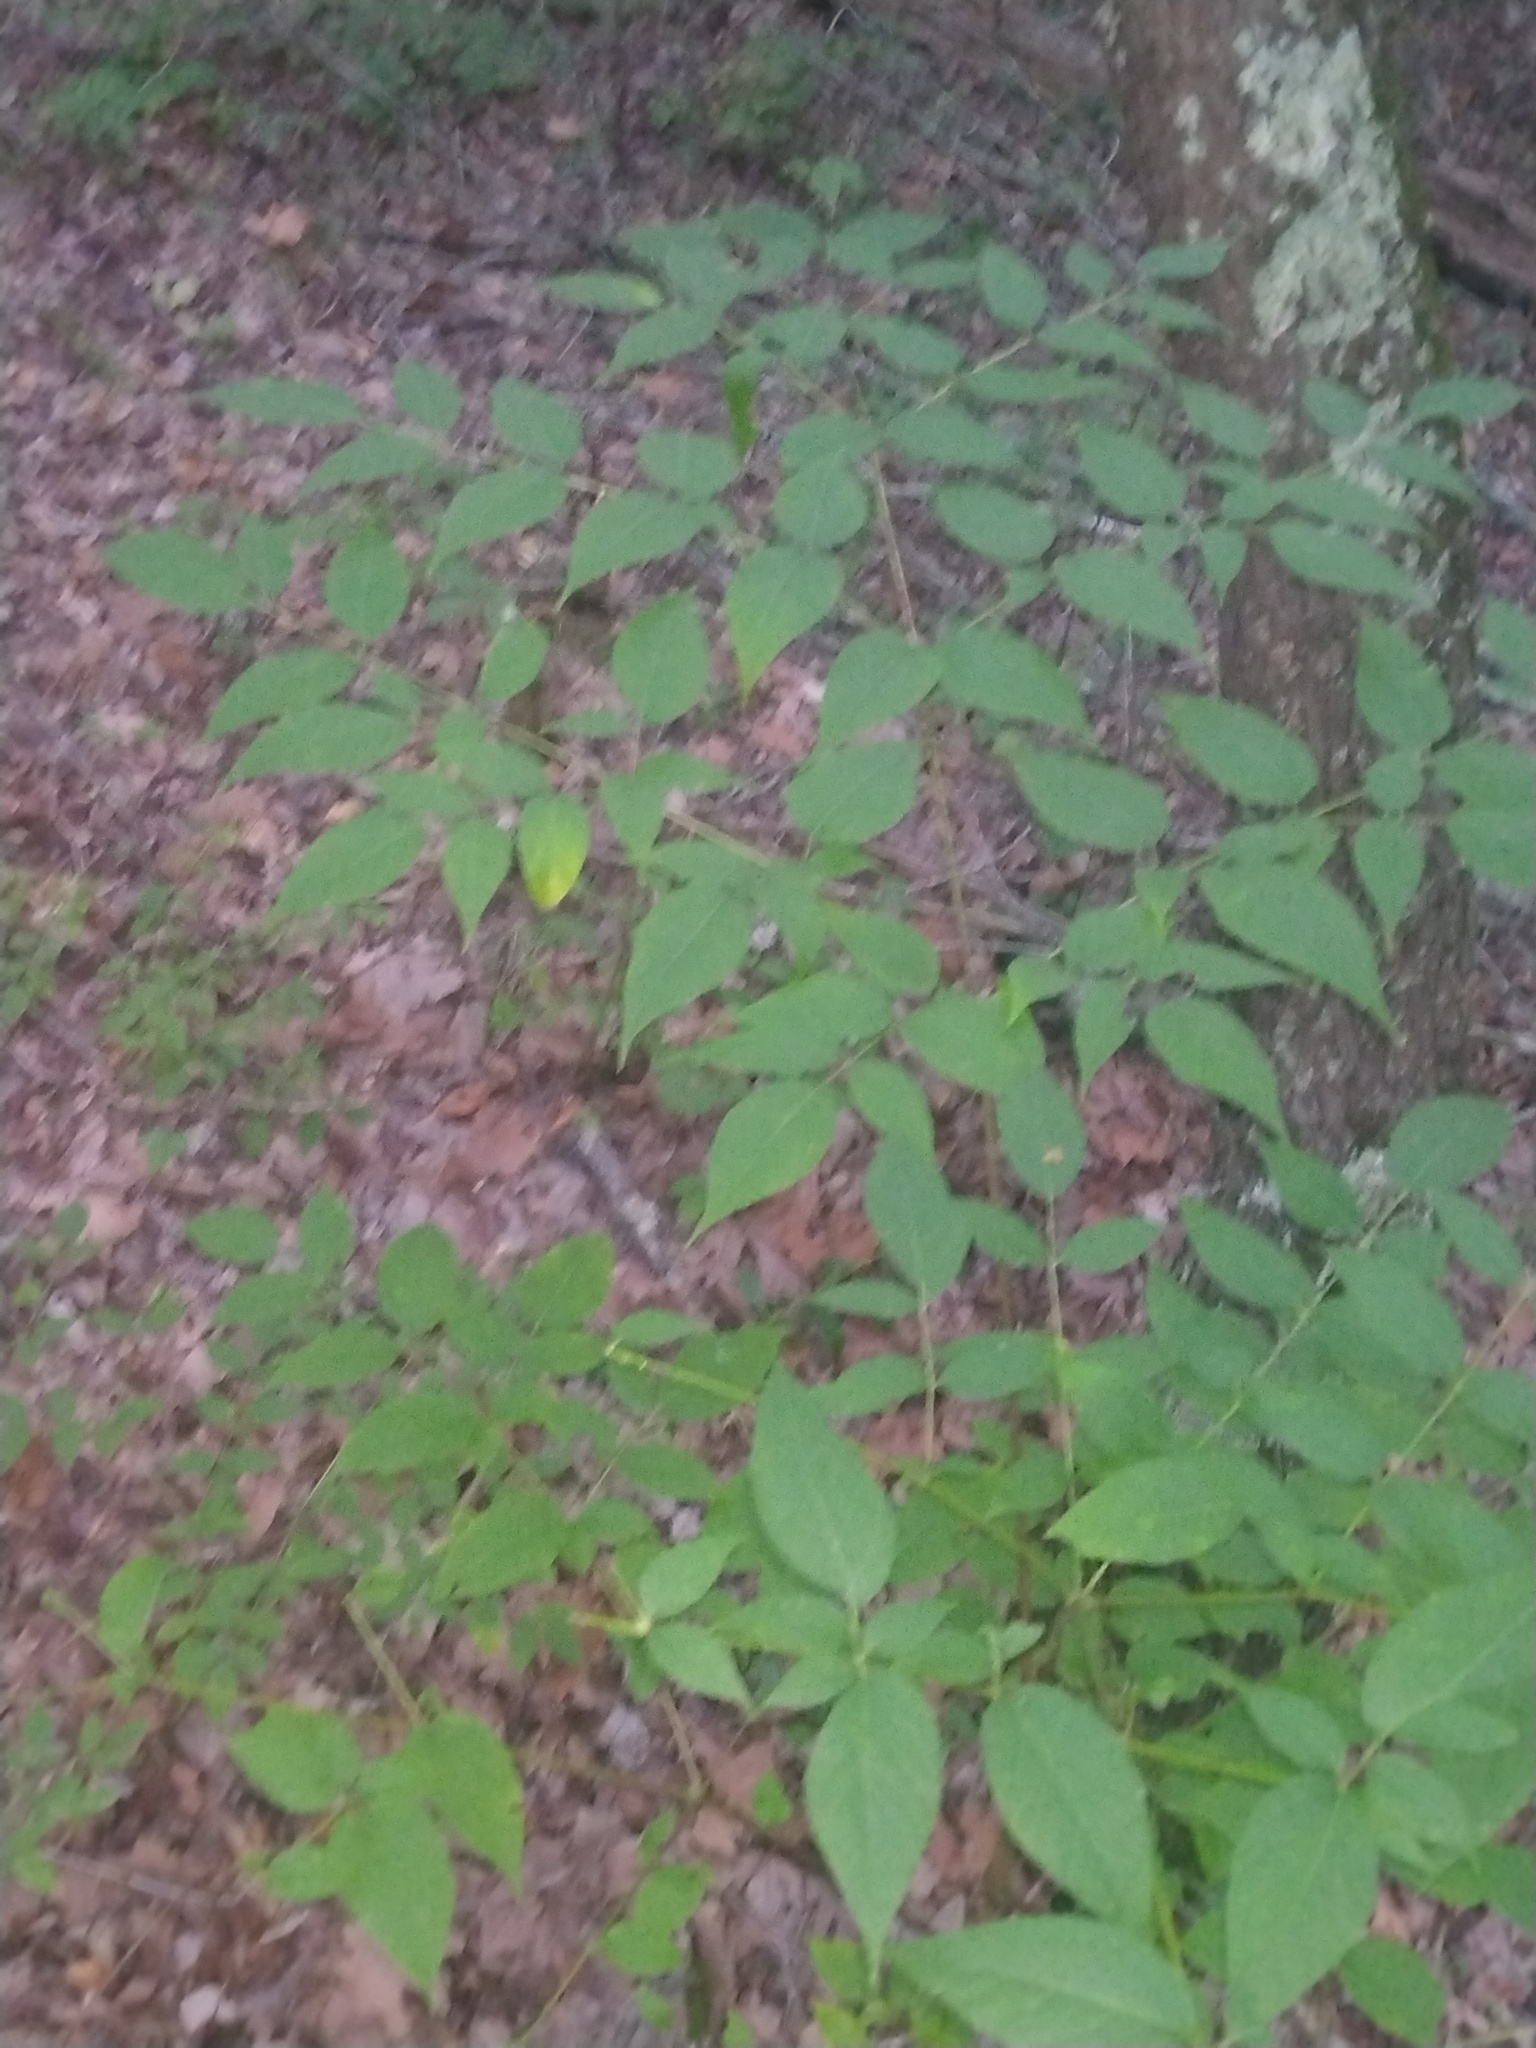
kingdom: Plantae
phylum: Tracheophyta
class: Magnoliopsida
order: Apiales
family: Araliaceae
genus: Aralia
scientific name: Aralia spinosa
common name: Hercules'-club
